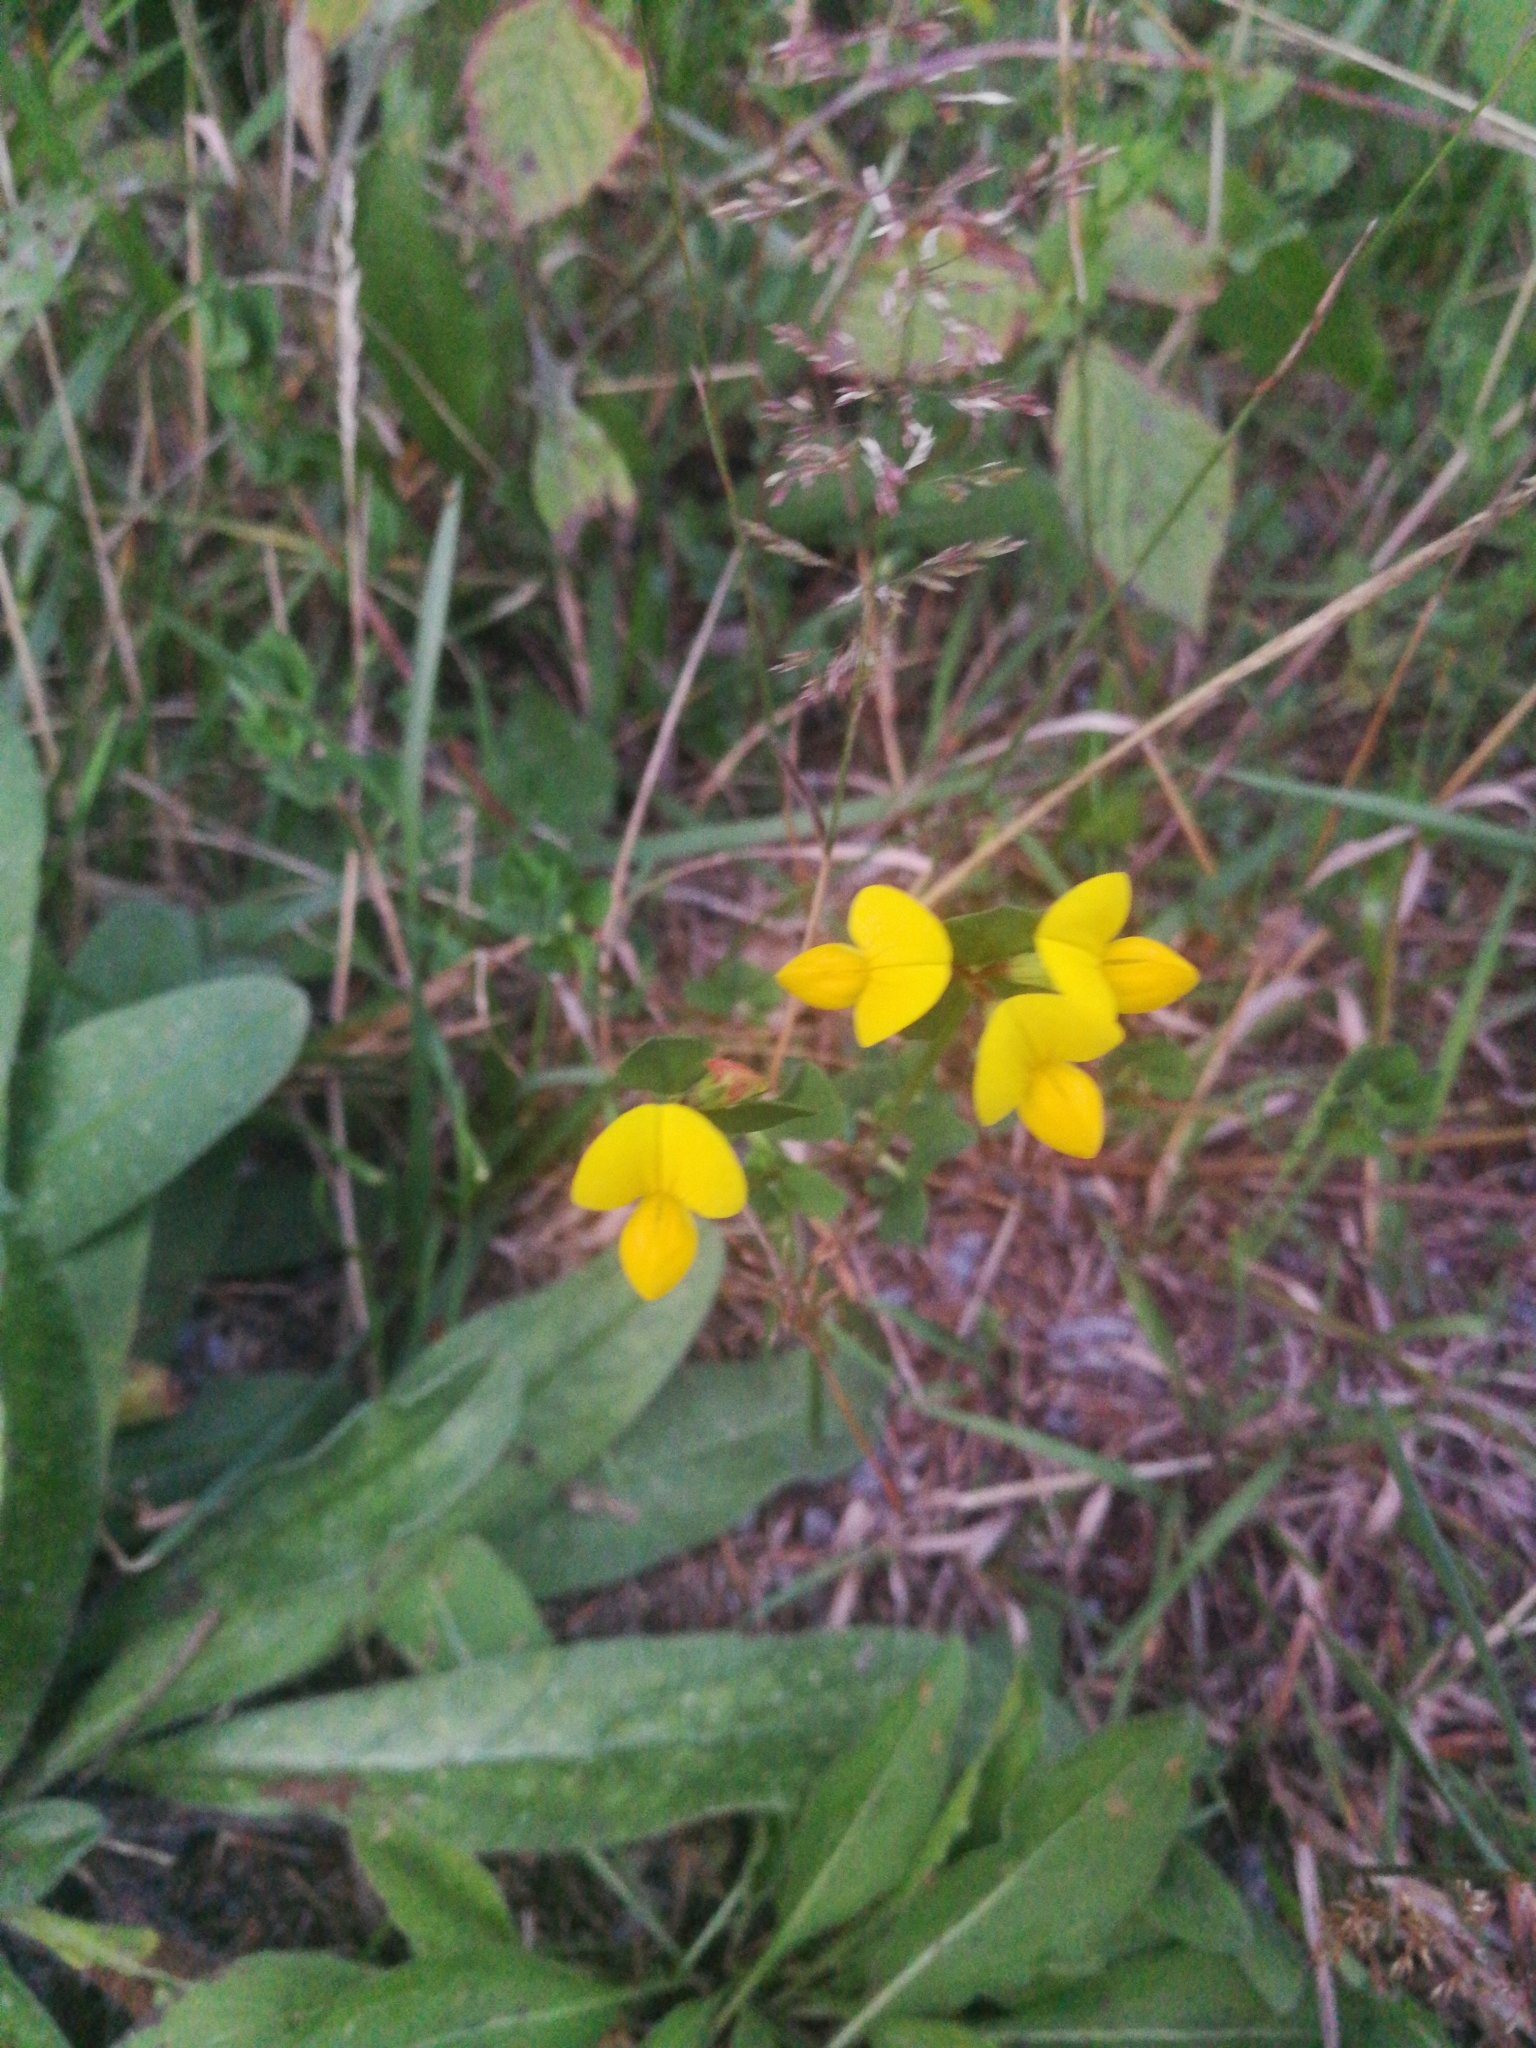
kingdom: Plantae
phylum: Tracheophyta
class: Magnoliopsida
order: Fabales
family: Fabaceae
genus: Lotus
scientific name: Lotus corniculatus
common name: Common bird's-foot-trefoil
